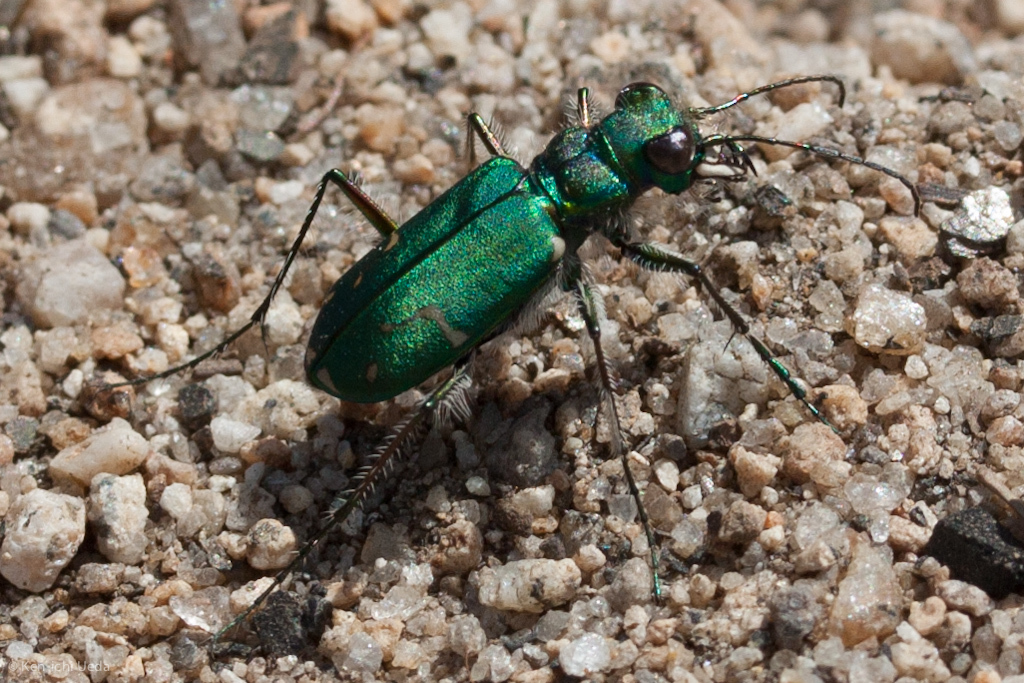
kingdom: Animalia
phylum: Arthropoda
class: Insecta
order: Coleoptera
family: Carabidae
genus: Cicindela
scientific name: Cicindela tranquebarica
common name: Oblique-lined tiger beetle
